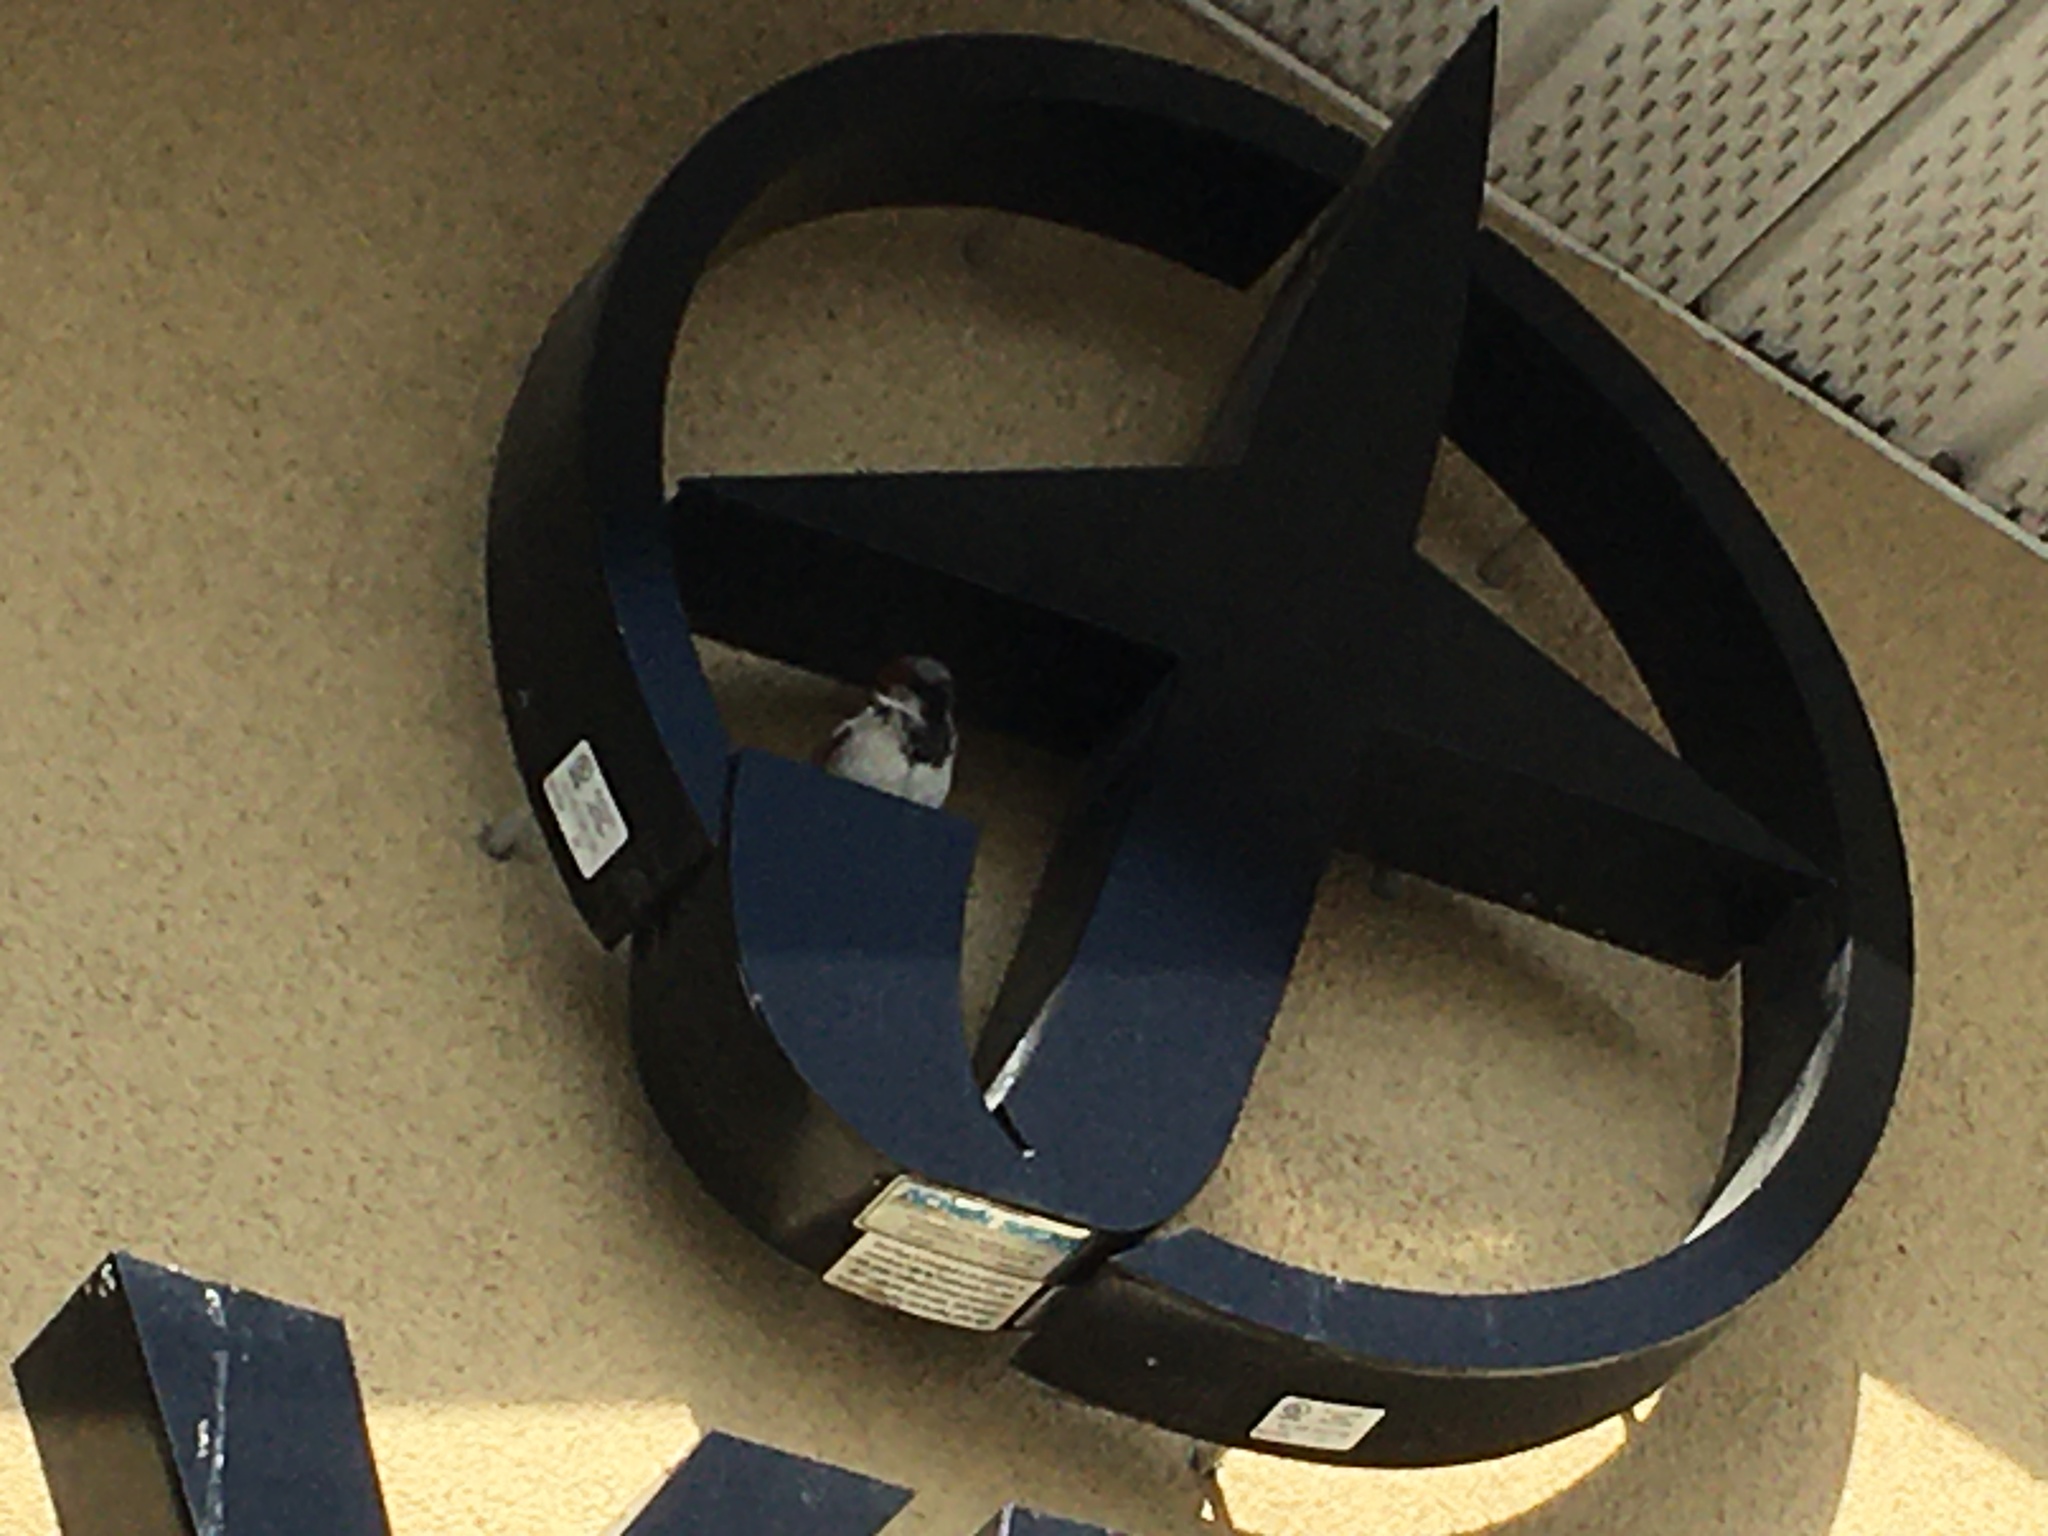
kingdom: Animalia
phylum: Chordata
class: Aves
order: Passeriformes
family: Passeridae
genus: Passer
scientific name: Passer domesticus
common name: House sparrow
